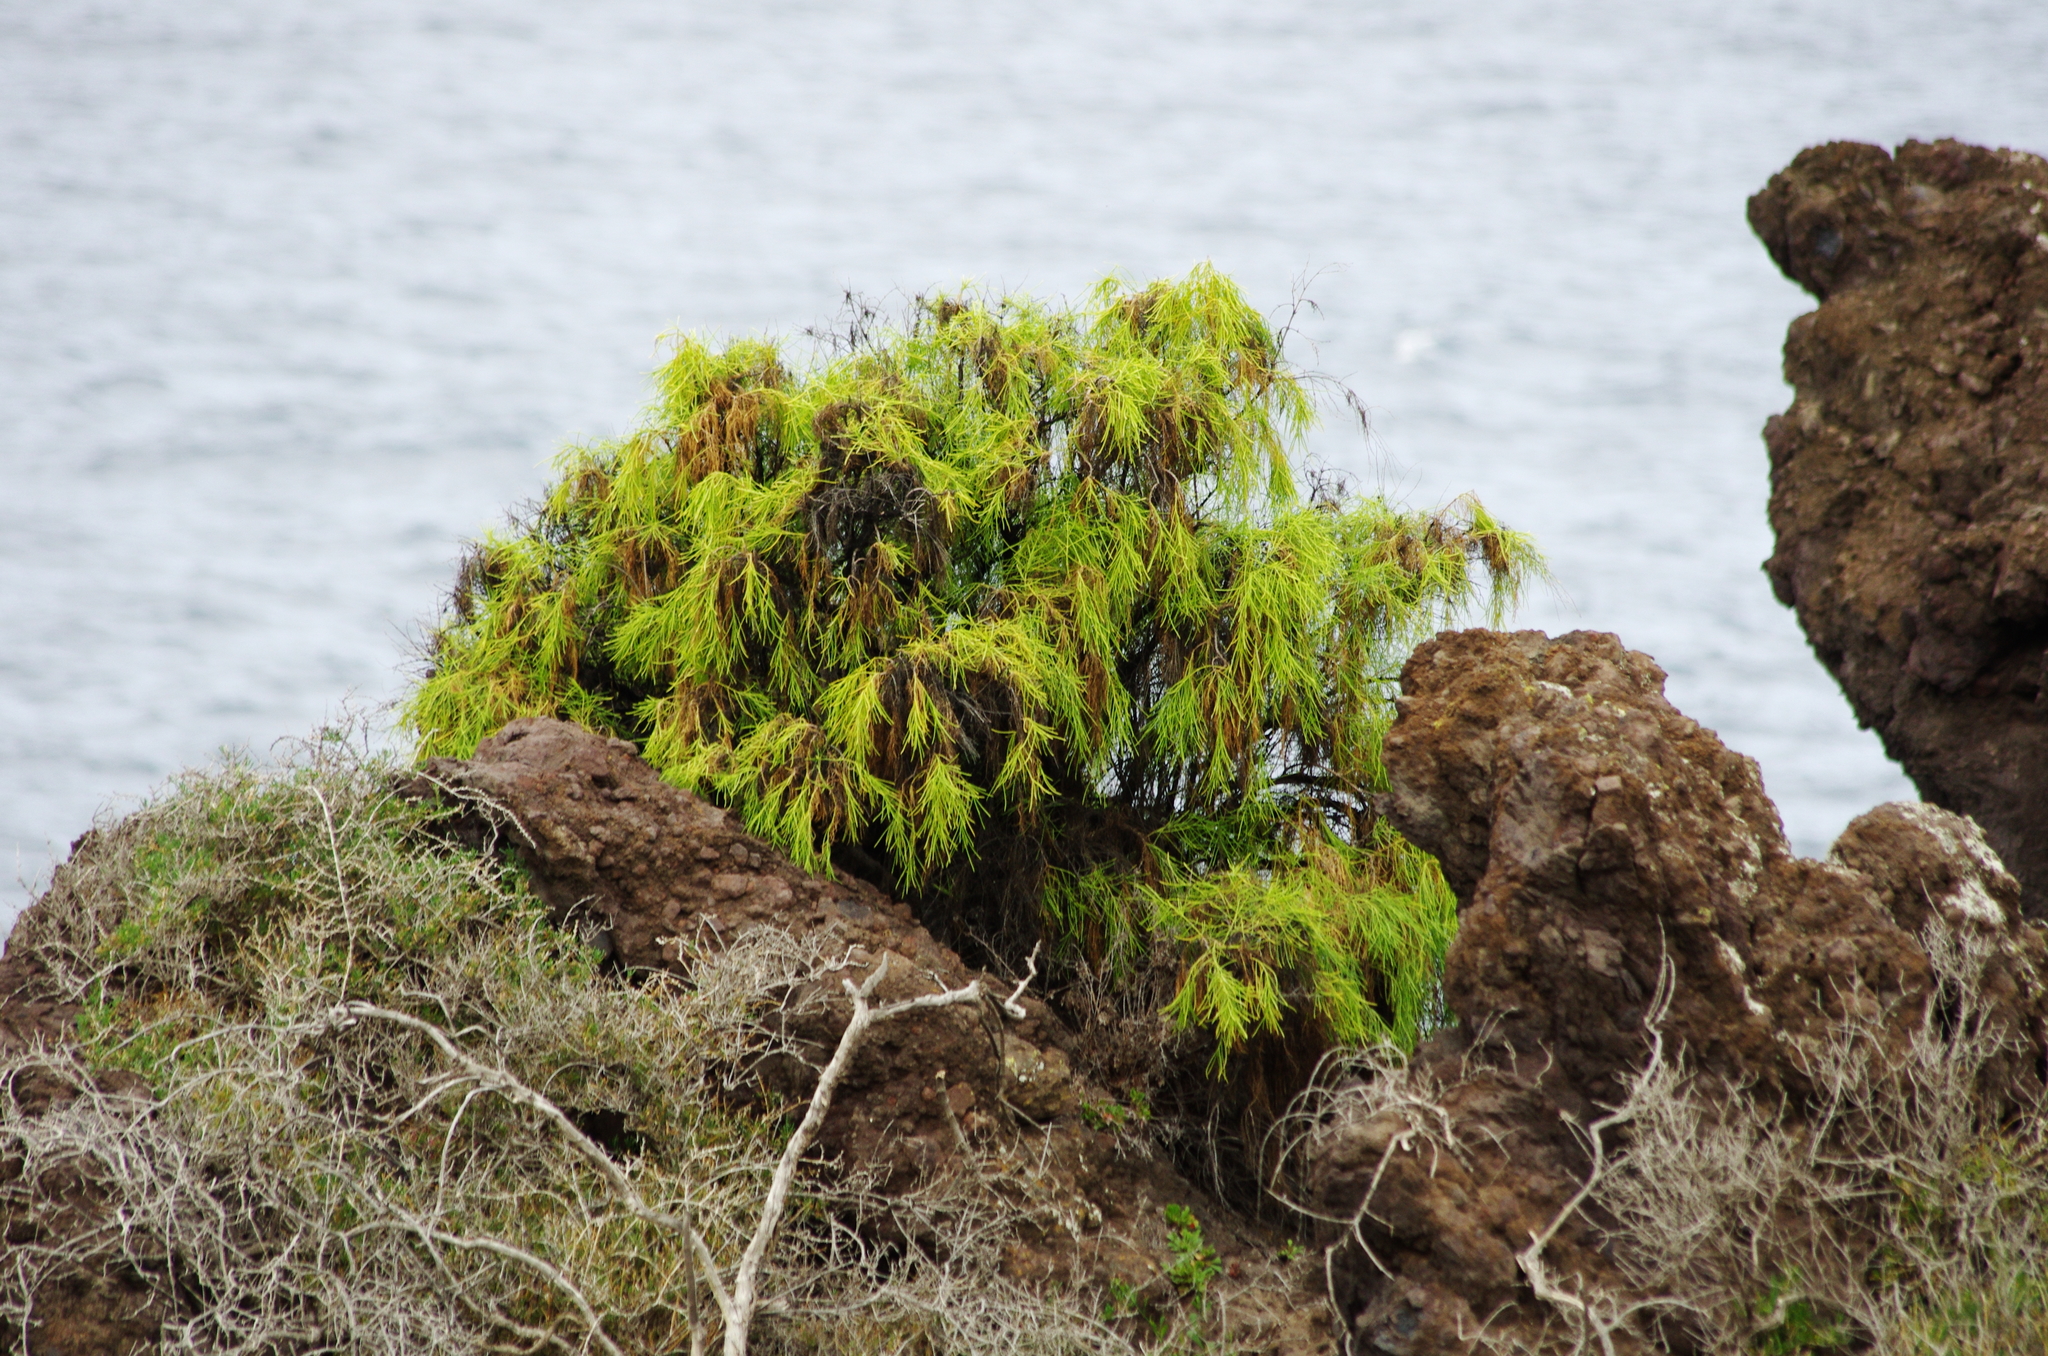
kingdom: Plantae
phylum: Tracheophyta
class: Magnoliopsida
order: Gentianales
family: Rubiaceae
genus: Plocama
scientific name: Plocama pendula
